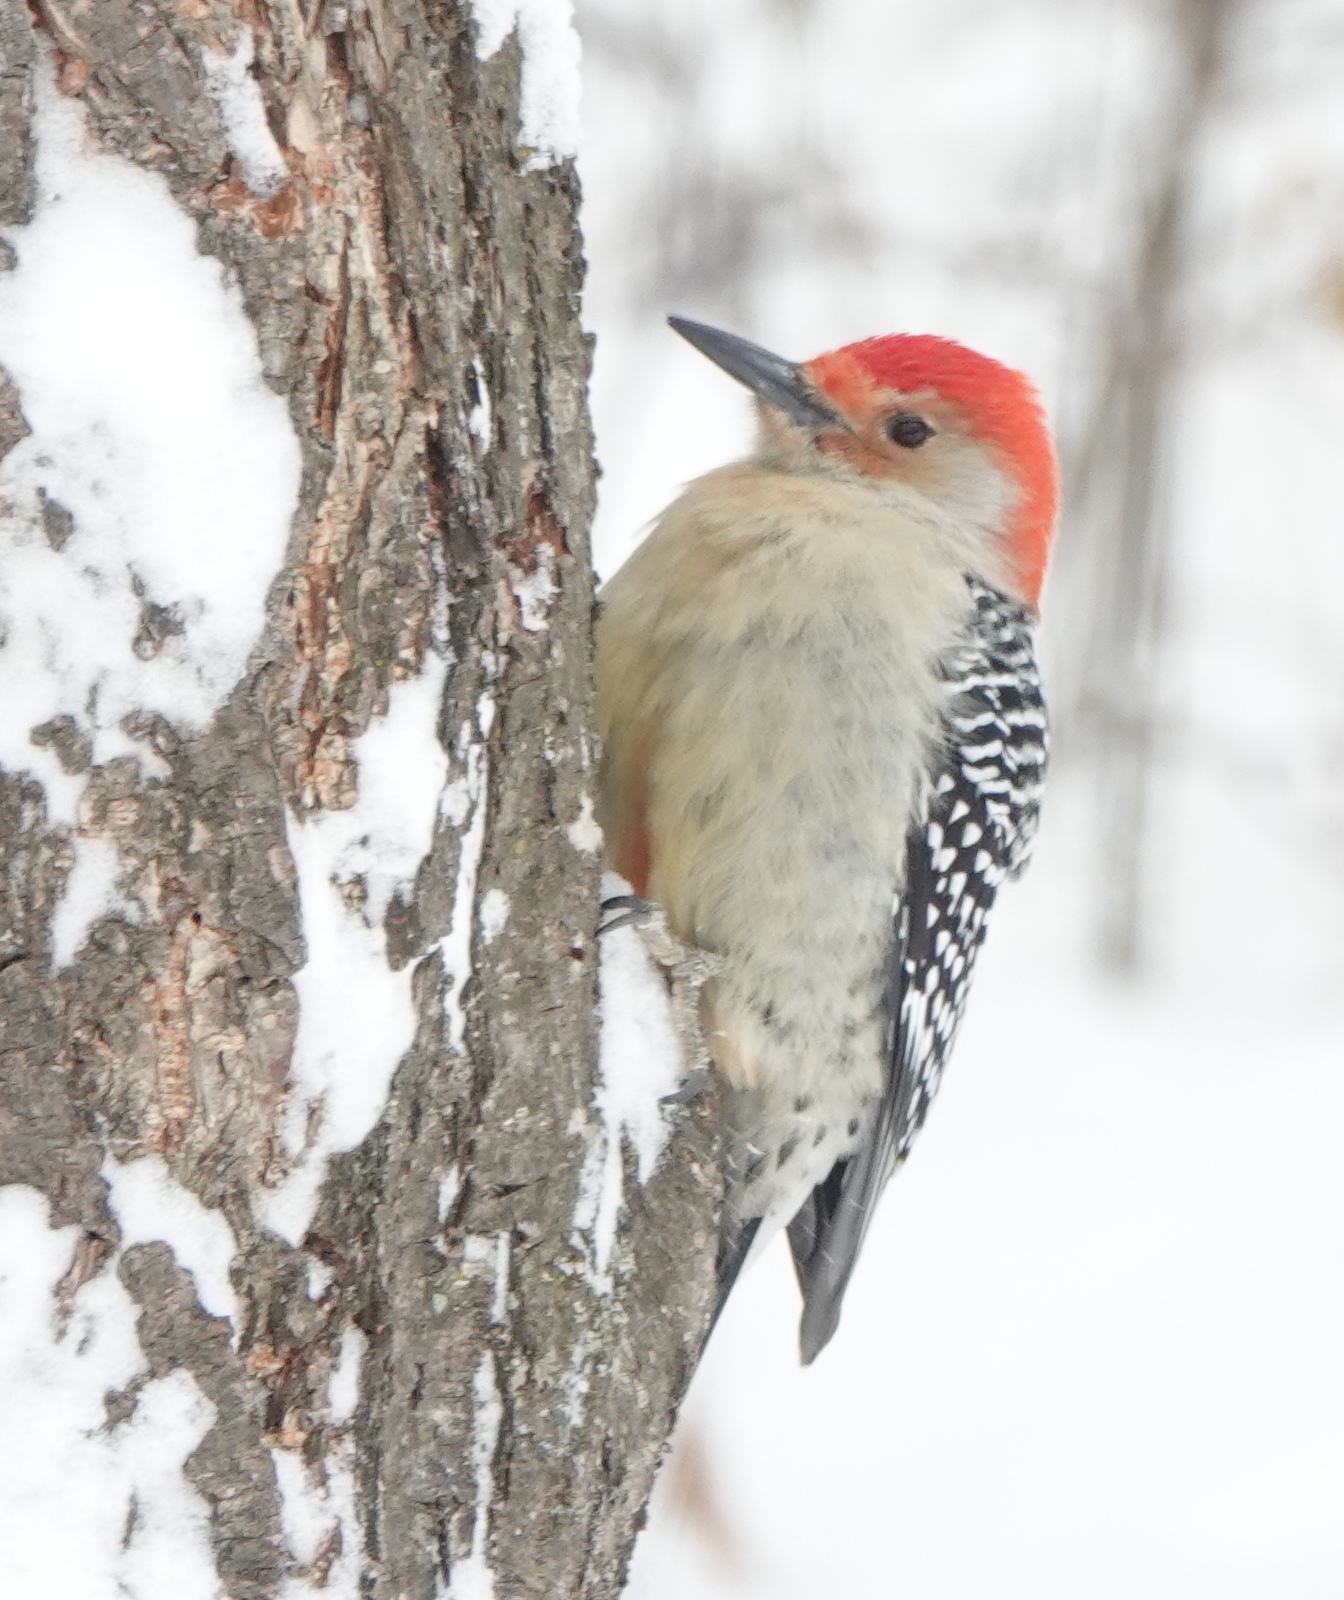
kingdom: Animalia
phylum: Chordata
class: Aves
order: Piciformes
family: Picidae
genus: Melanerpes
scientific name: Melanerpes carolinus
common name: Red-bellied woodpecker
